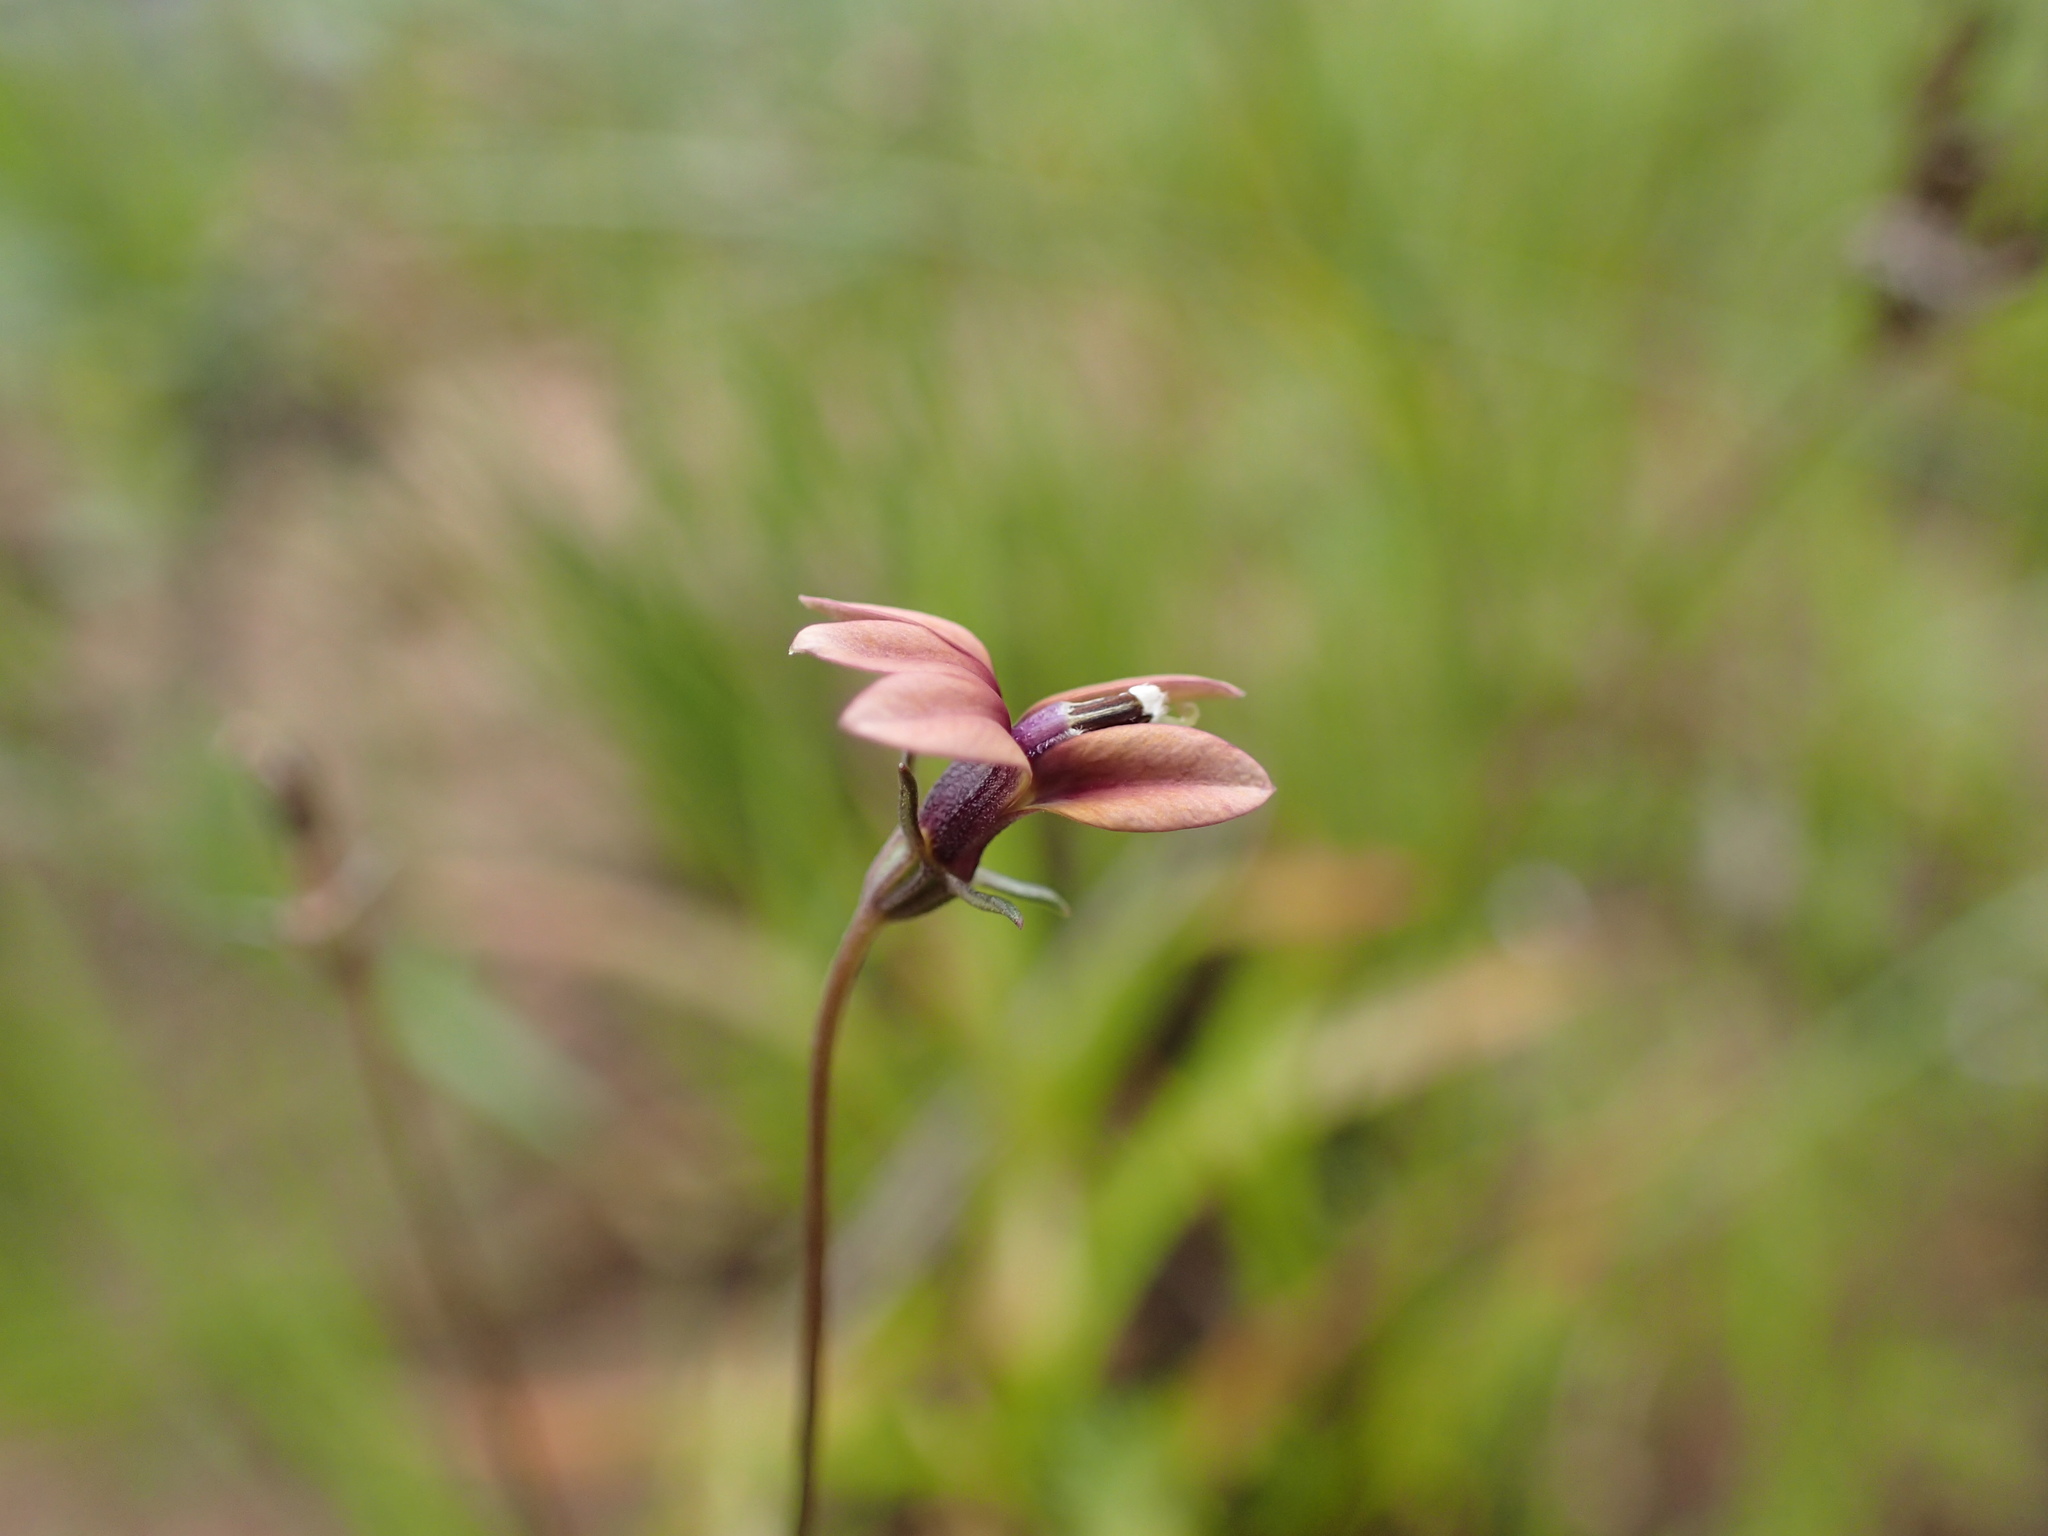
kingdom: Plantae
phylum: Tracheophyta
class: Magnoliopsida
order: Asterales
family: Campanulaceae
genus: Monopsis
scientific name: Monopsis unidentata
